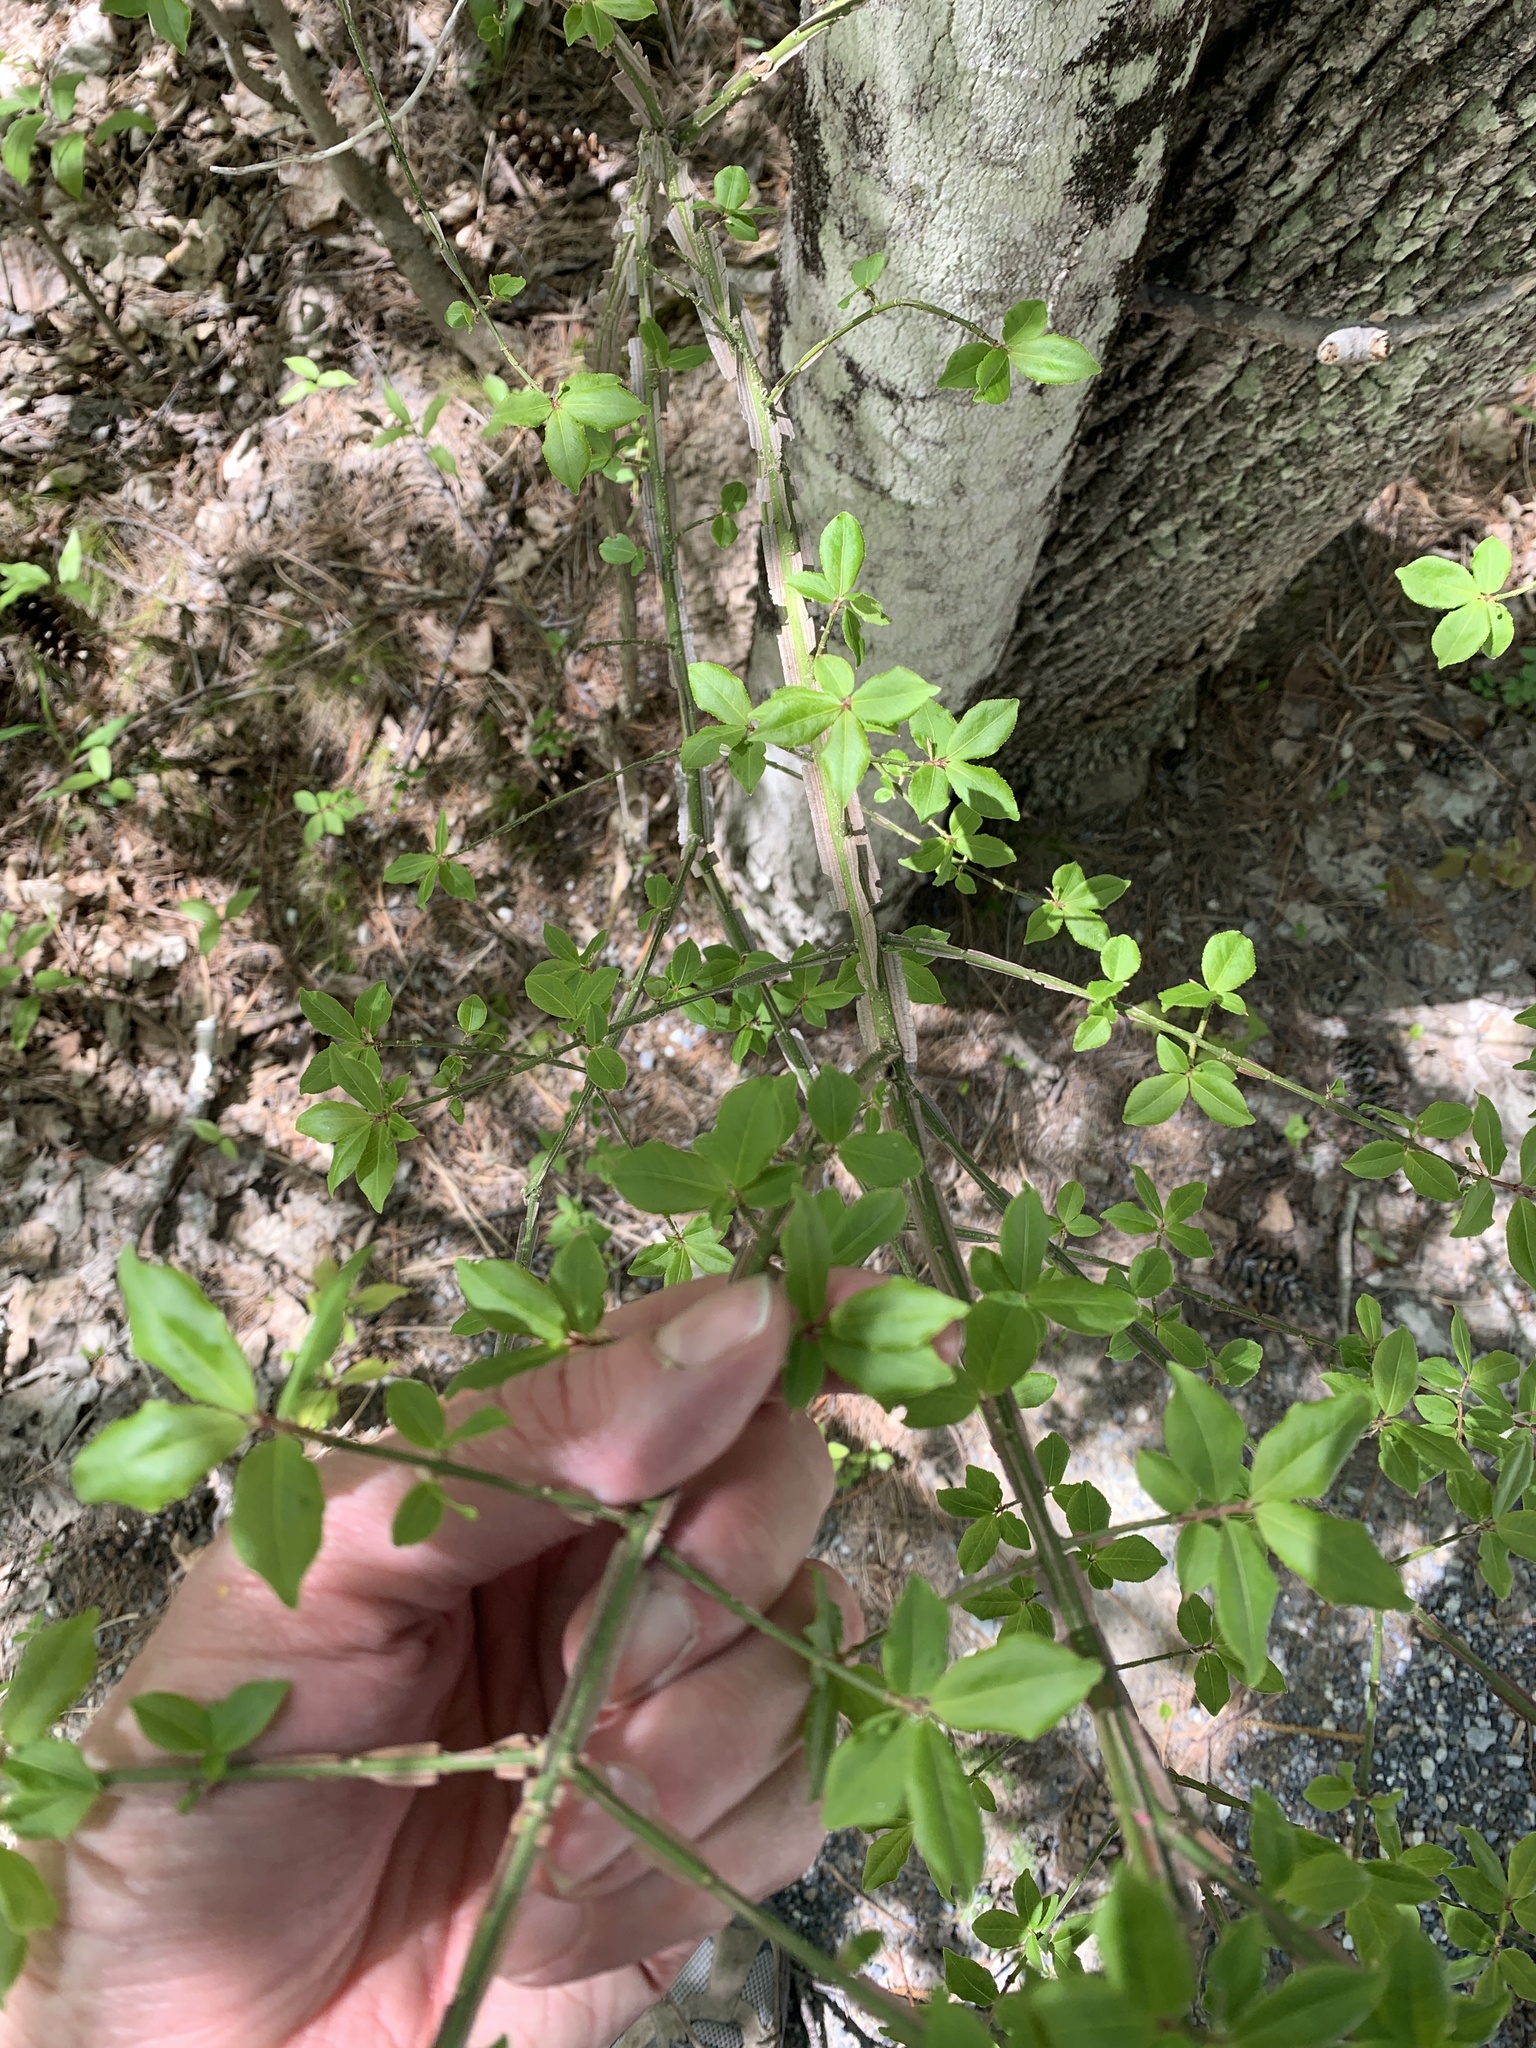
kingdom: Plantae
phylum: Tracheophyta
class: Magnoliopsida
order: Celastrales
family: Celastraceae
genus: Euonymus
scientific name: Euonymus alatus
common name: Winged euonymus
